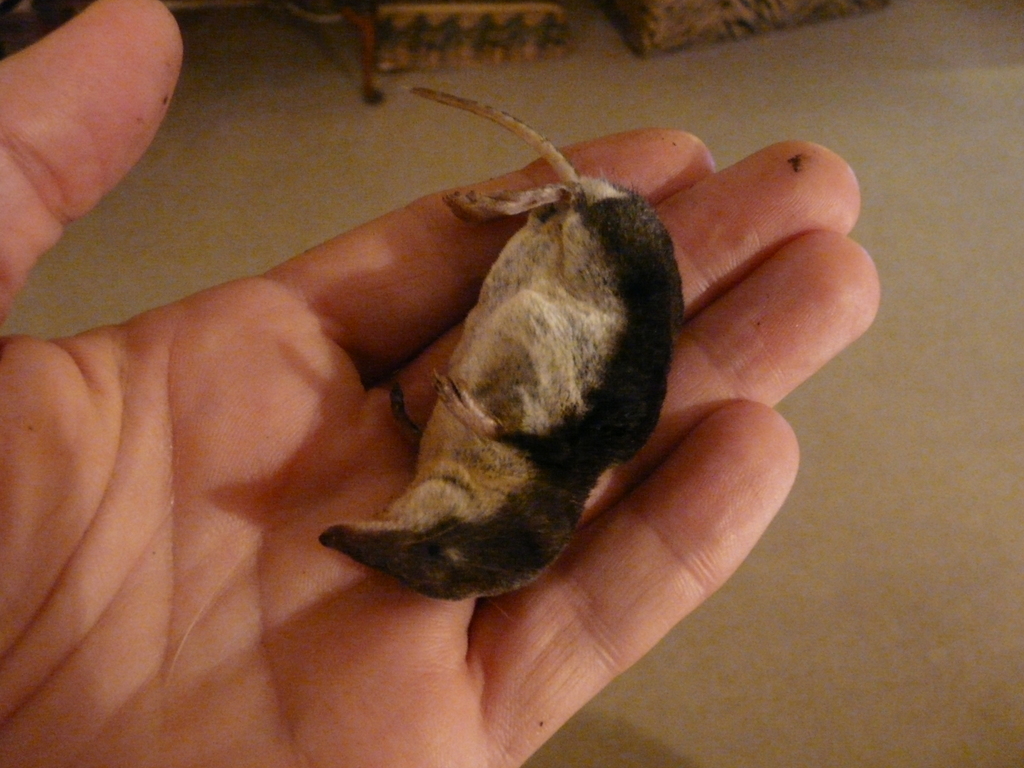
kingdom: Animalia
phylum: Chordata
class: Mammalia
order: Soricomorpha
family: Soricidae
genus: Neomys
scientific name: Neomys fodiens
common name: Eurasian water shrew
